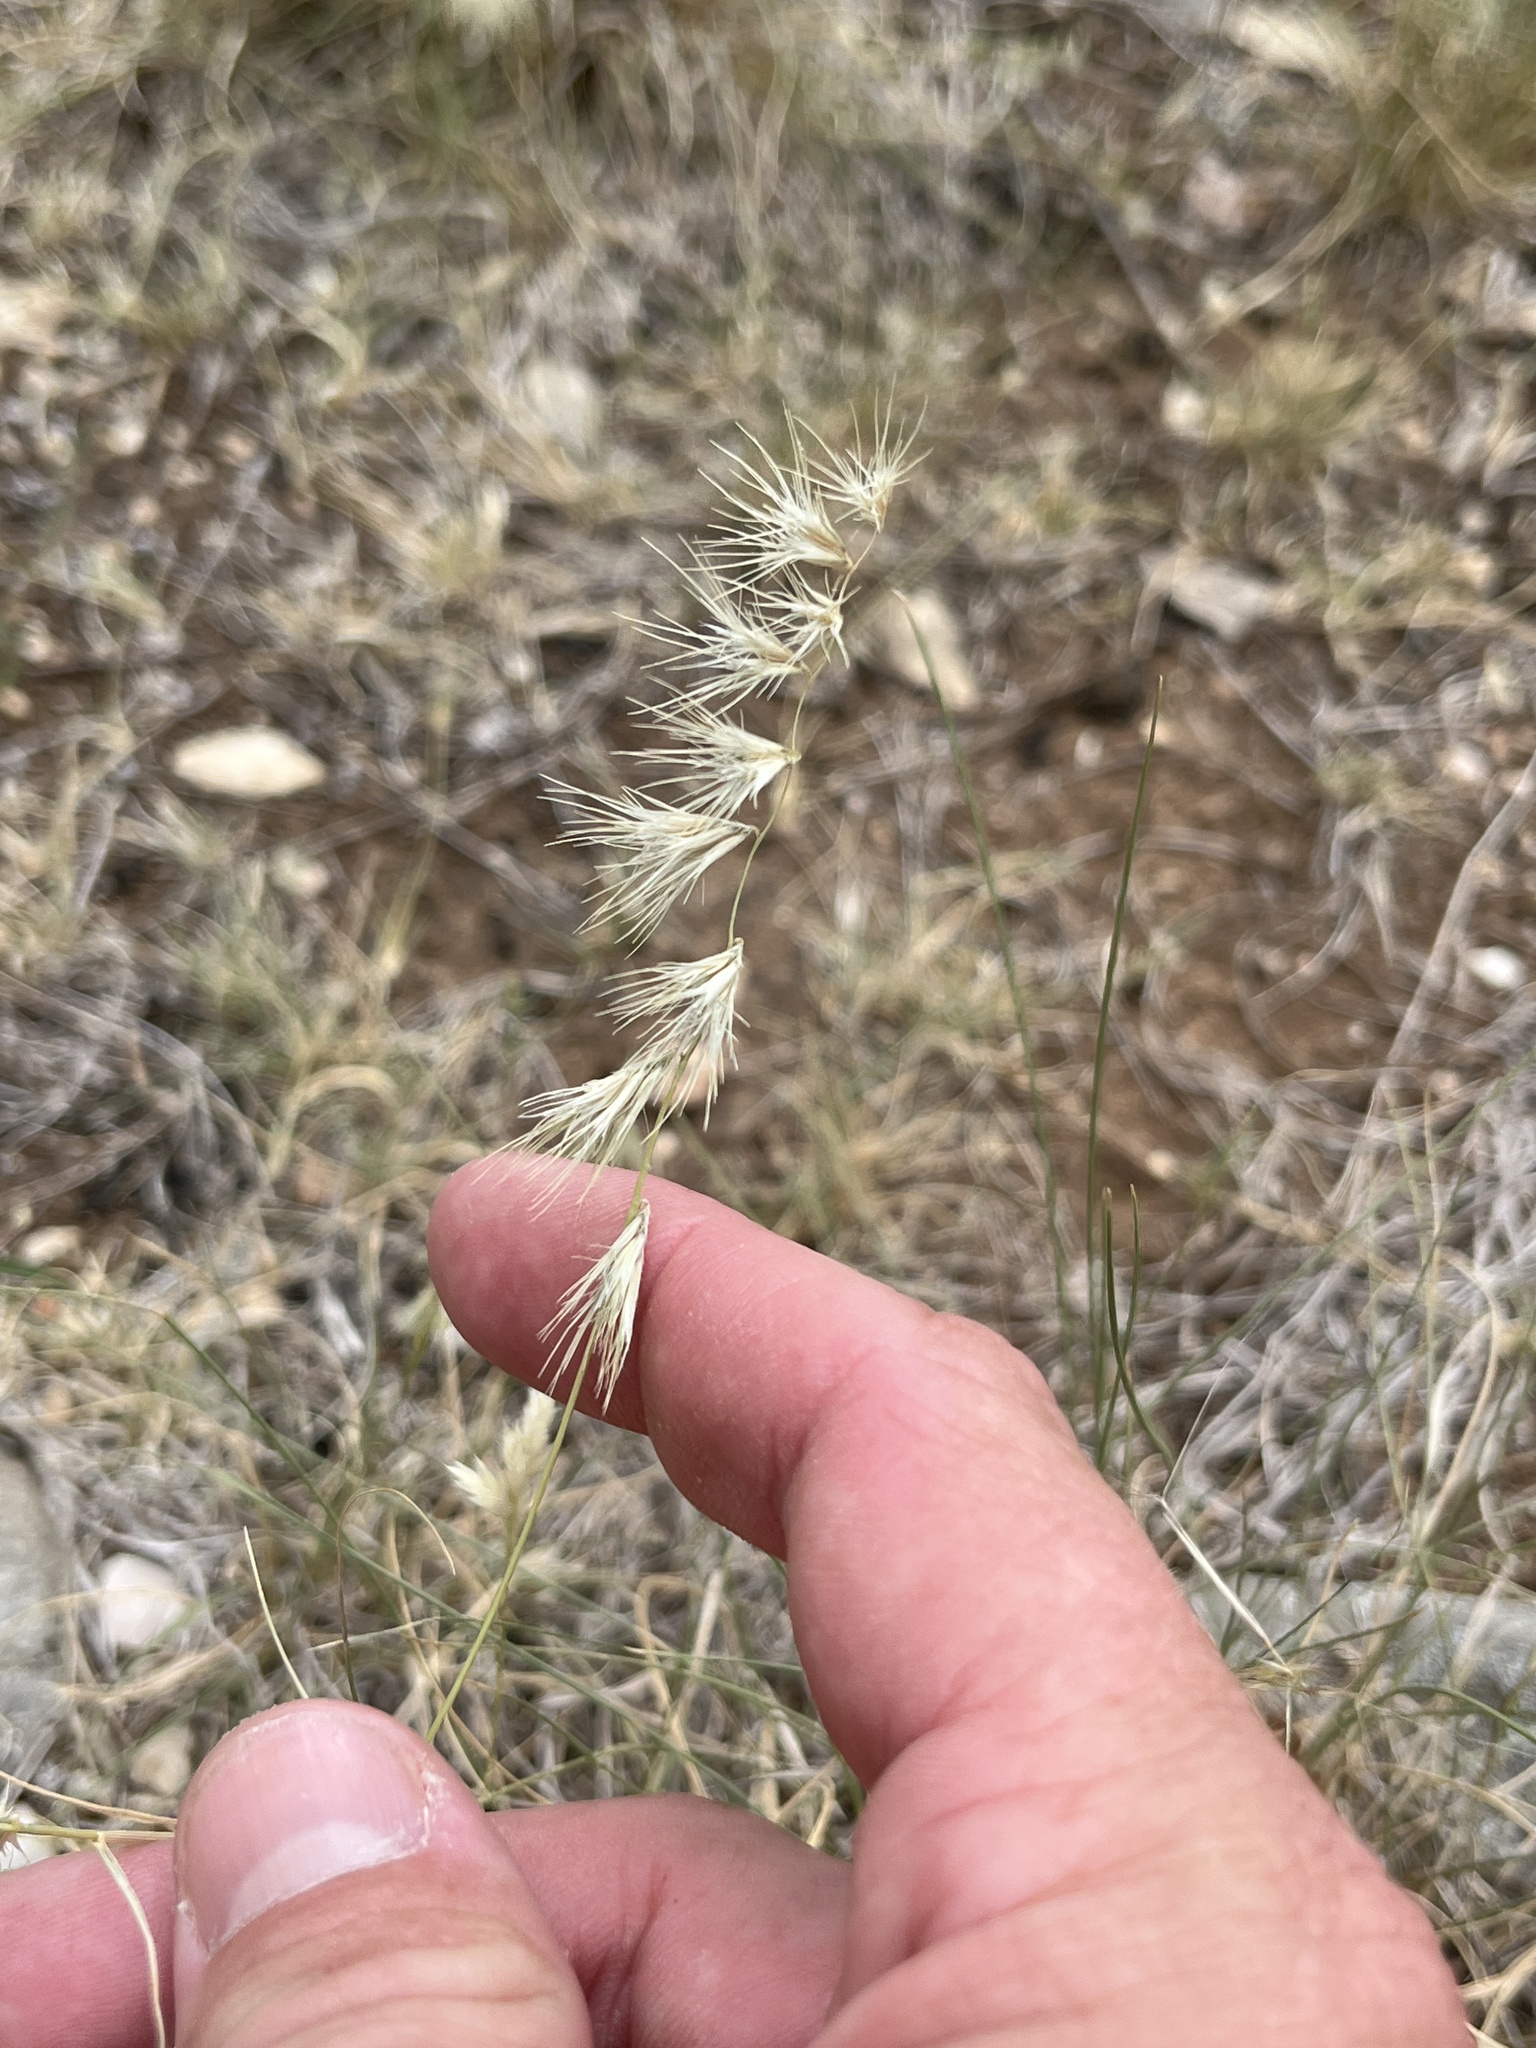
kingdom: Plantae
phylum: Tracheophyta
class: Liliopsida
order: Poales
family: Poaceae
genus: Bouteloua
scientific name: Bouteloua rigidiseta
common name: Texas grama
